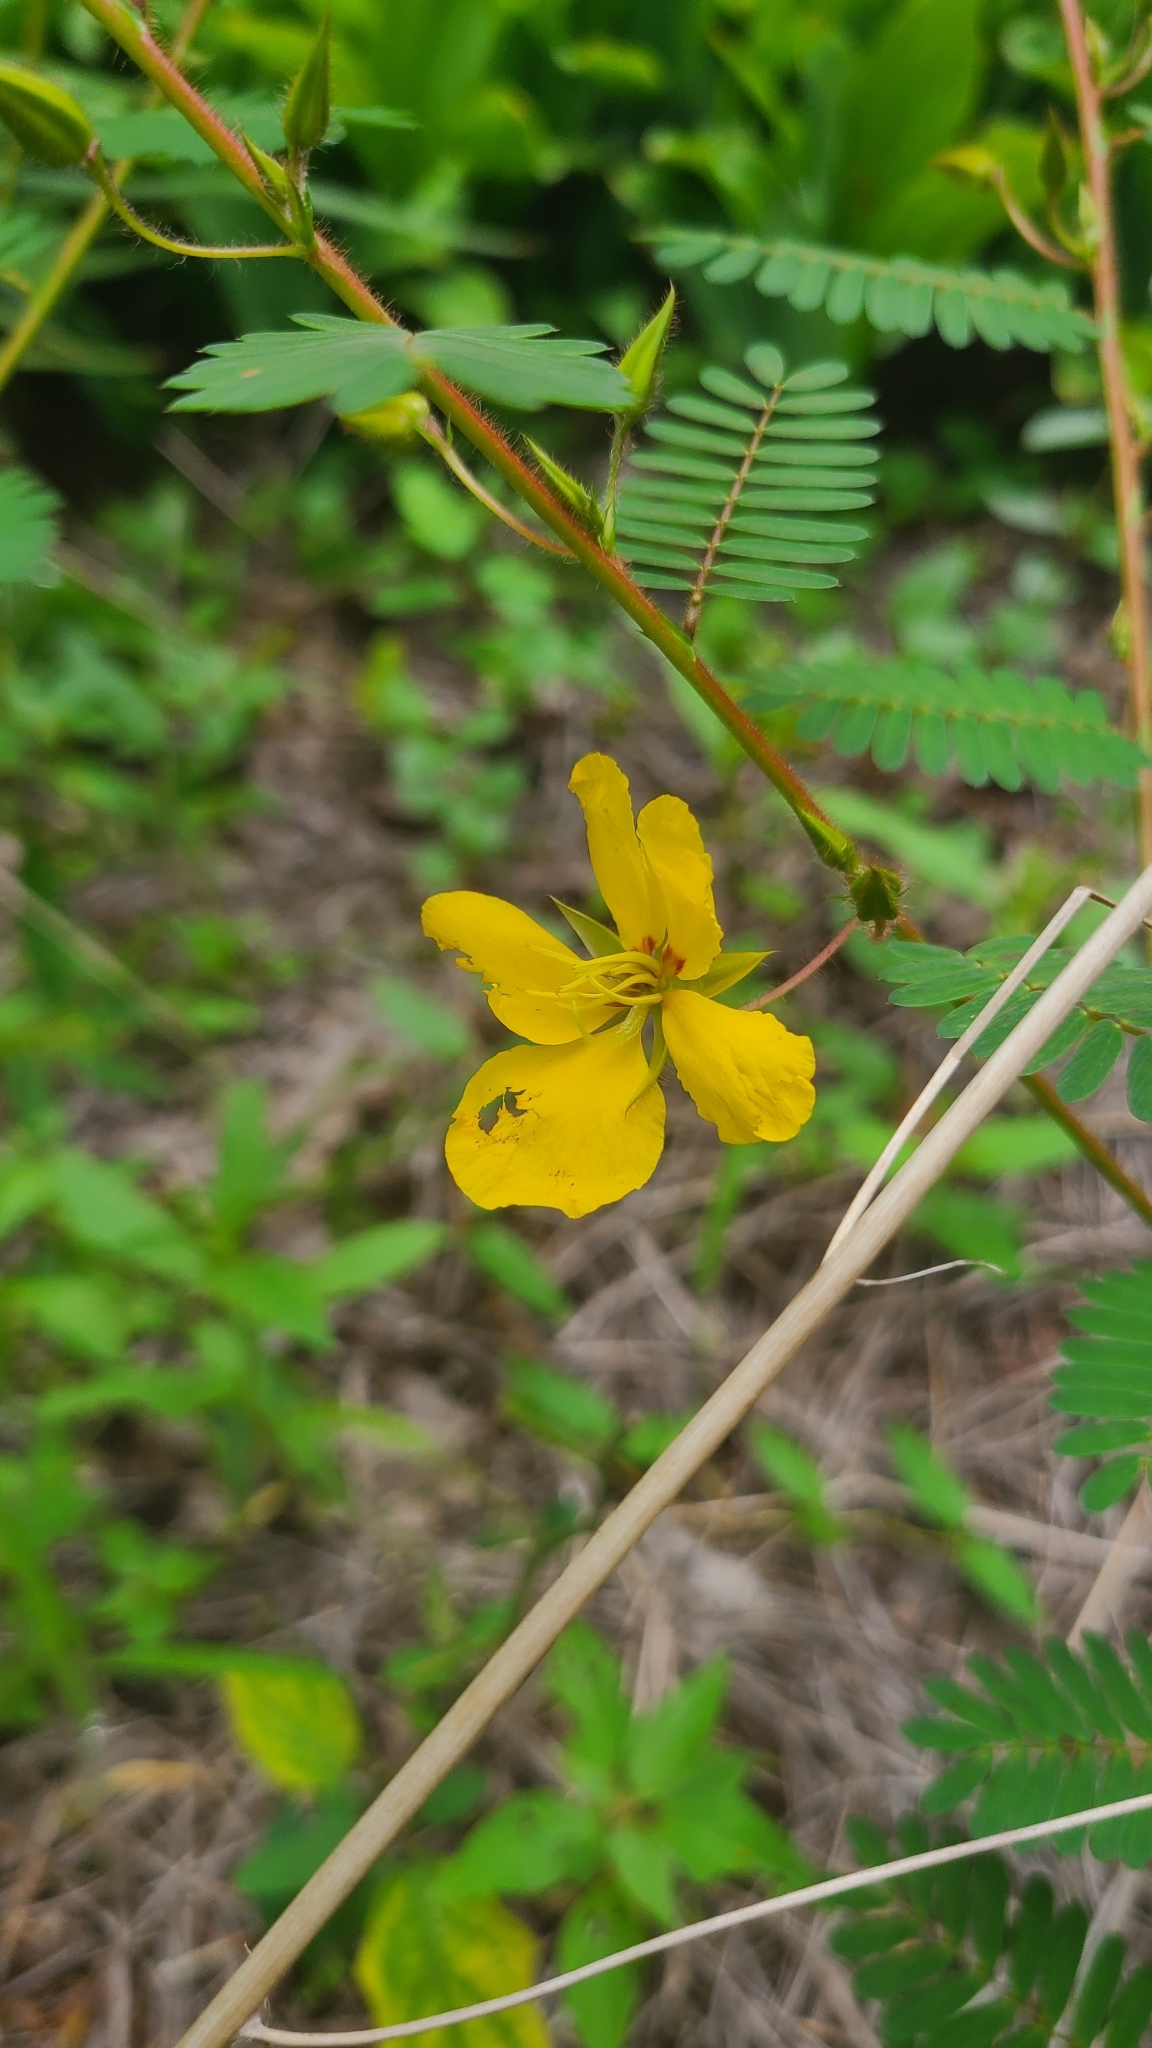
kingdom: Plantae
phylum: Tracheophyta
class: Magnoliopsida
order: Fabales
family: Fabaceae
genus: Chamaecrista
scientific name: Chamaecrista fasciculata
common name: Golden cassia
